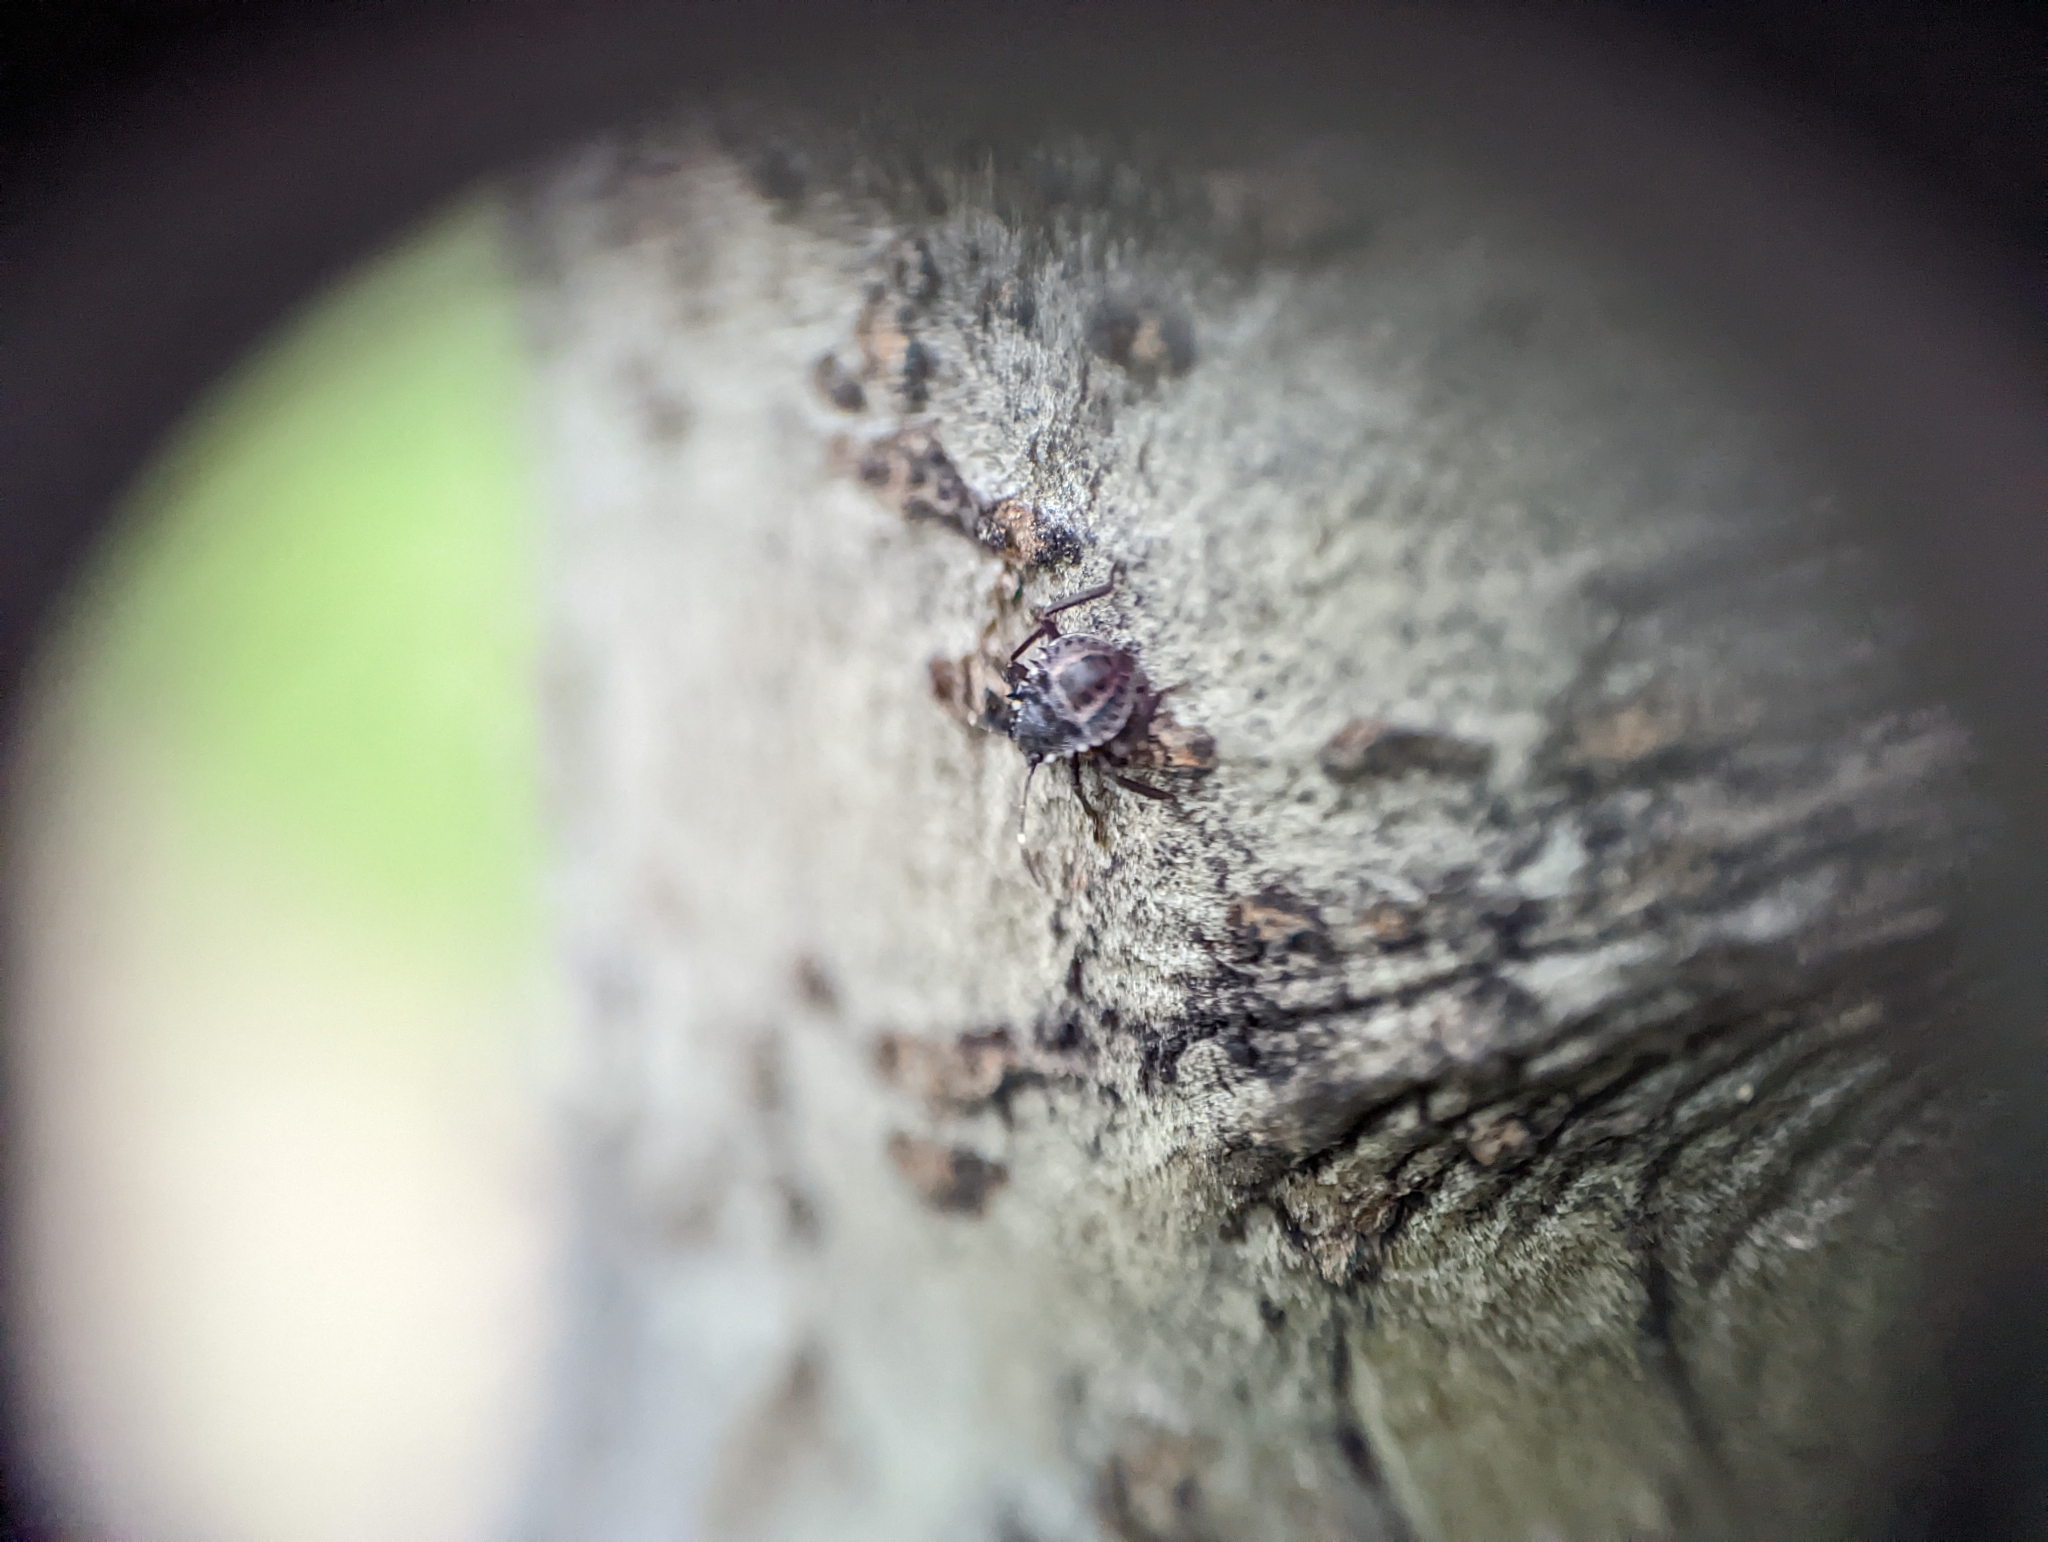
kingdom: Animalia
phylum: Arthropoda
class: Insecta
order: Hemiptera
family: Pentatomidae
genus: Halyomorpha
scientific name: Halyomorpha halys
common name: Brown marmorated stink bug
